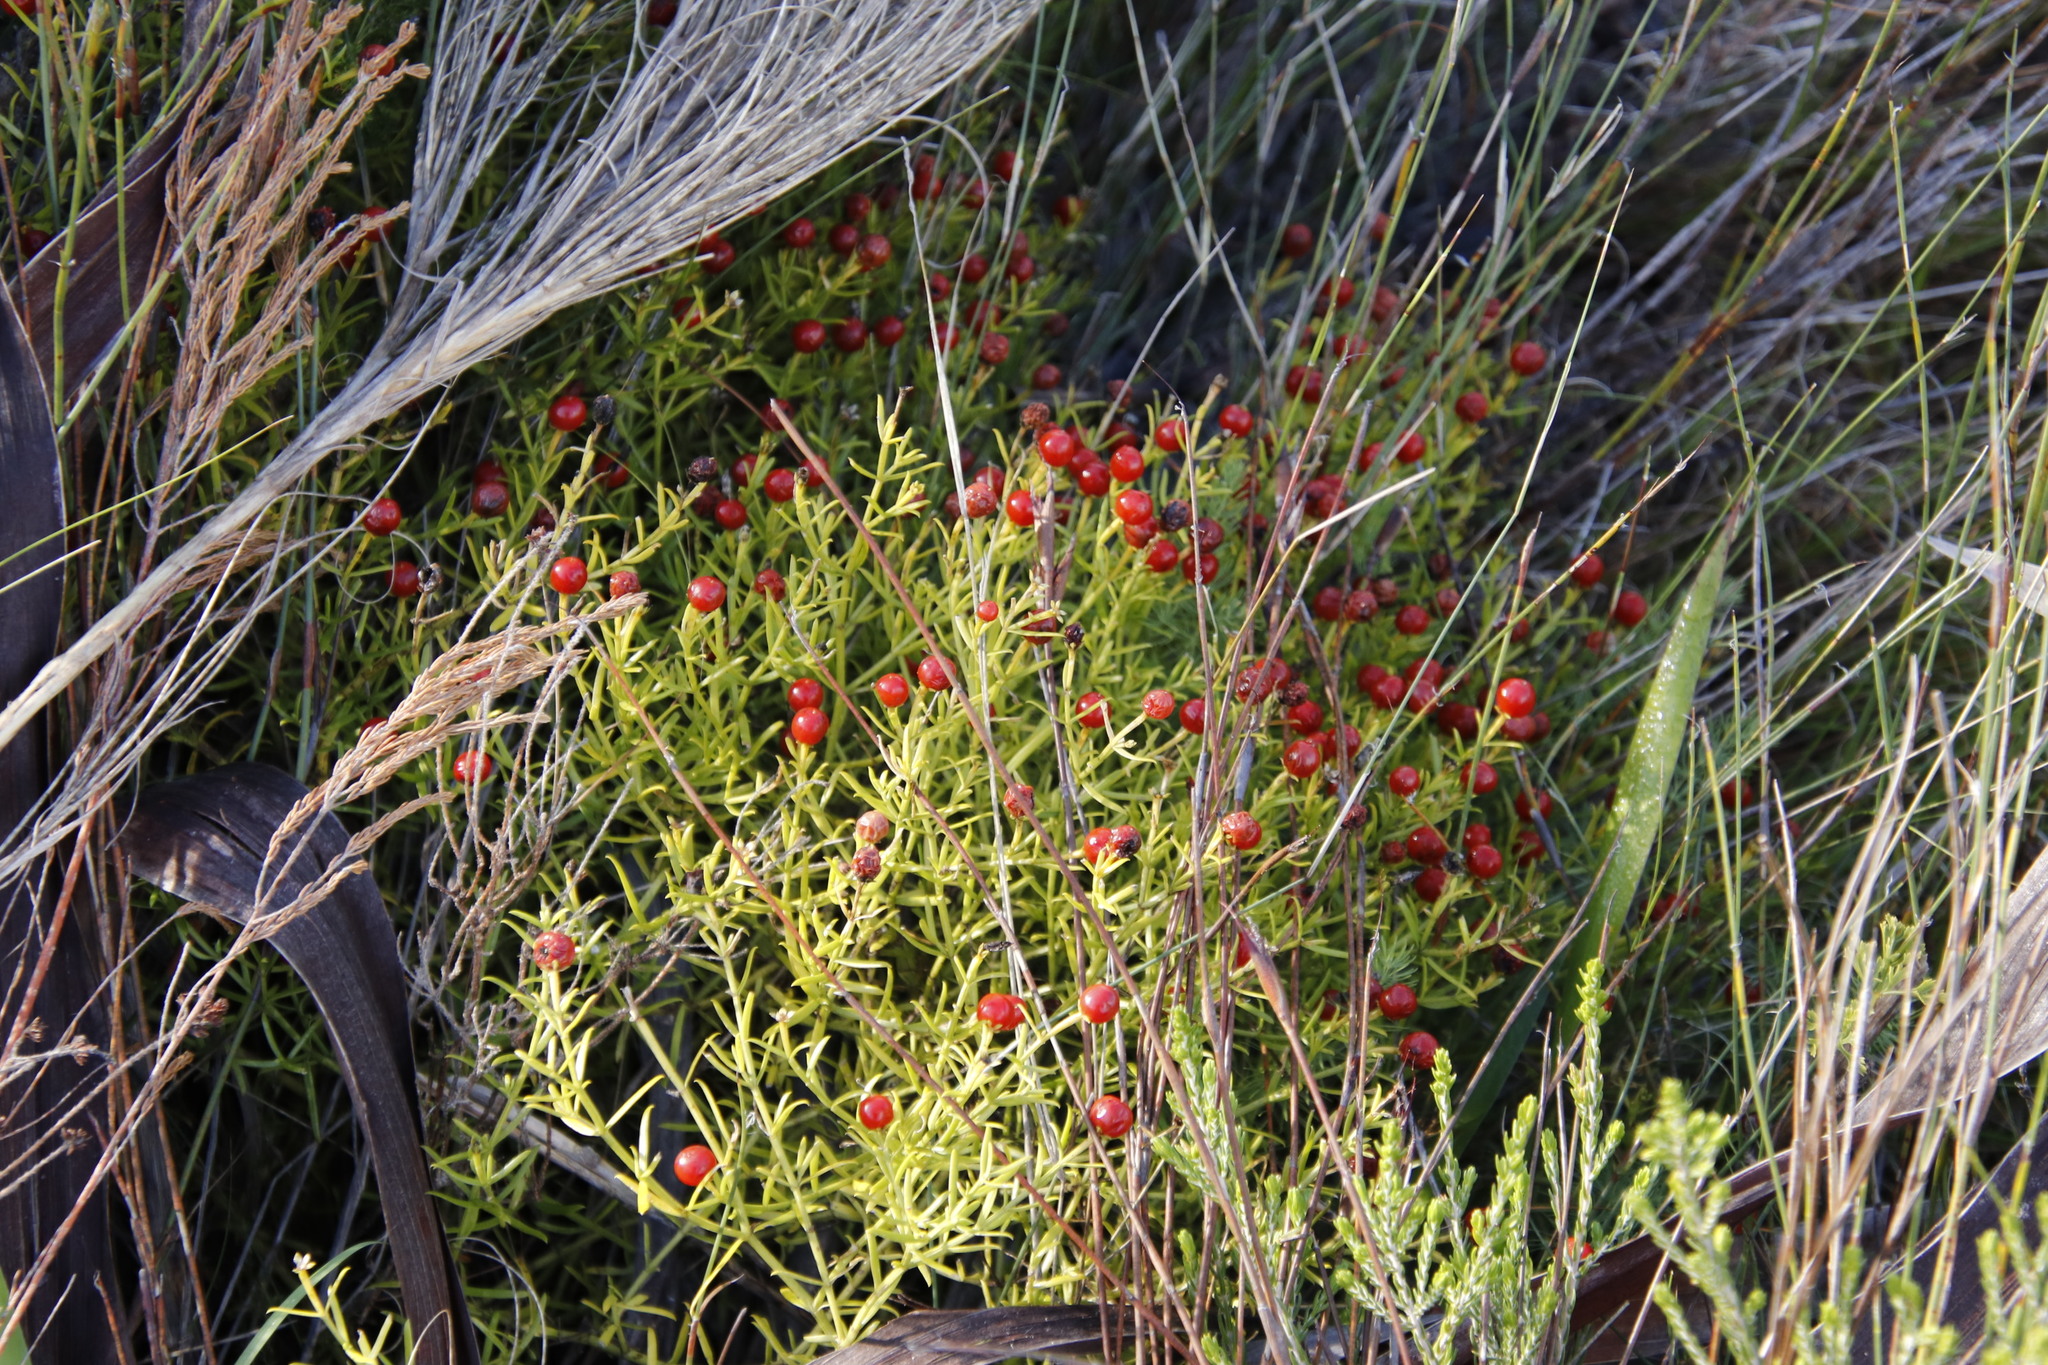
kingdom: Plantae
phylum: Tracheophyta
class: Magnoliopsida
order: Gentianales
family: Gentianaceae
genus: Chironia
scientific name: Chironia baccifera
